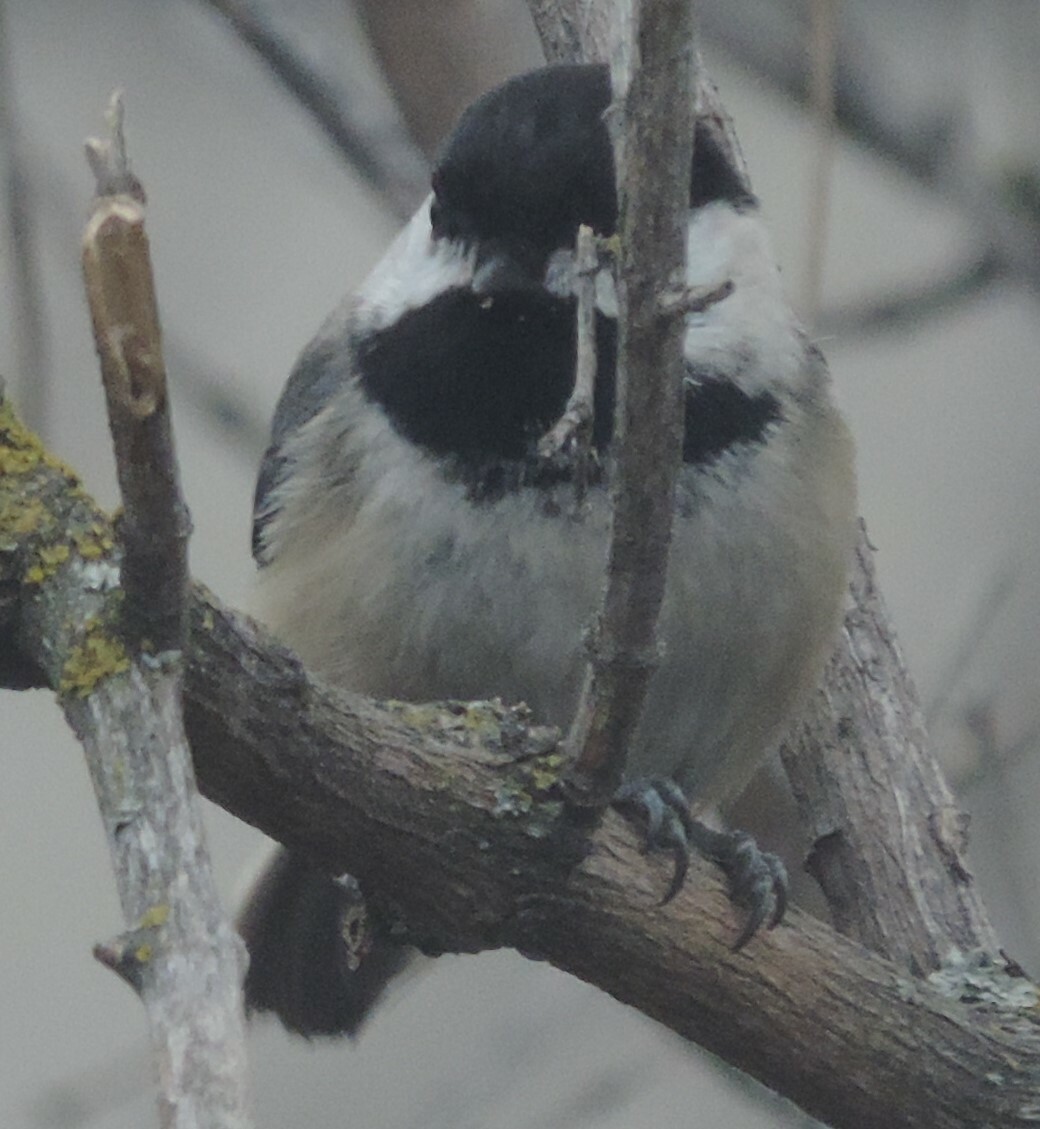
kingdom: Animalia
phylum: Chordata
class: Aves
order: Passeriformes
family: Paridae
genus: Poecile
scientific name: Poecile atricapillus
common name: Black-capped chickadee
